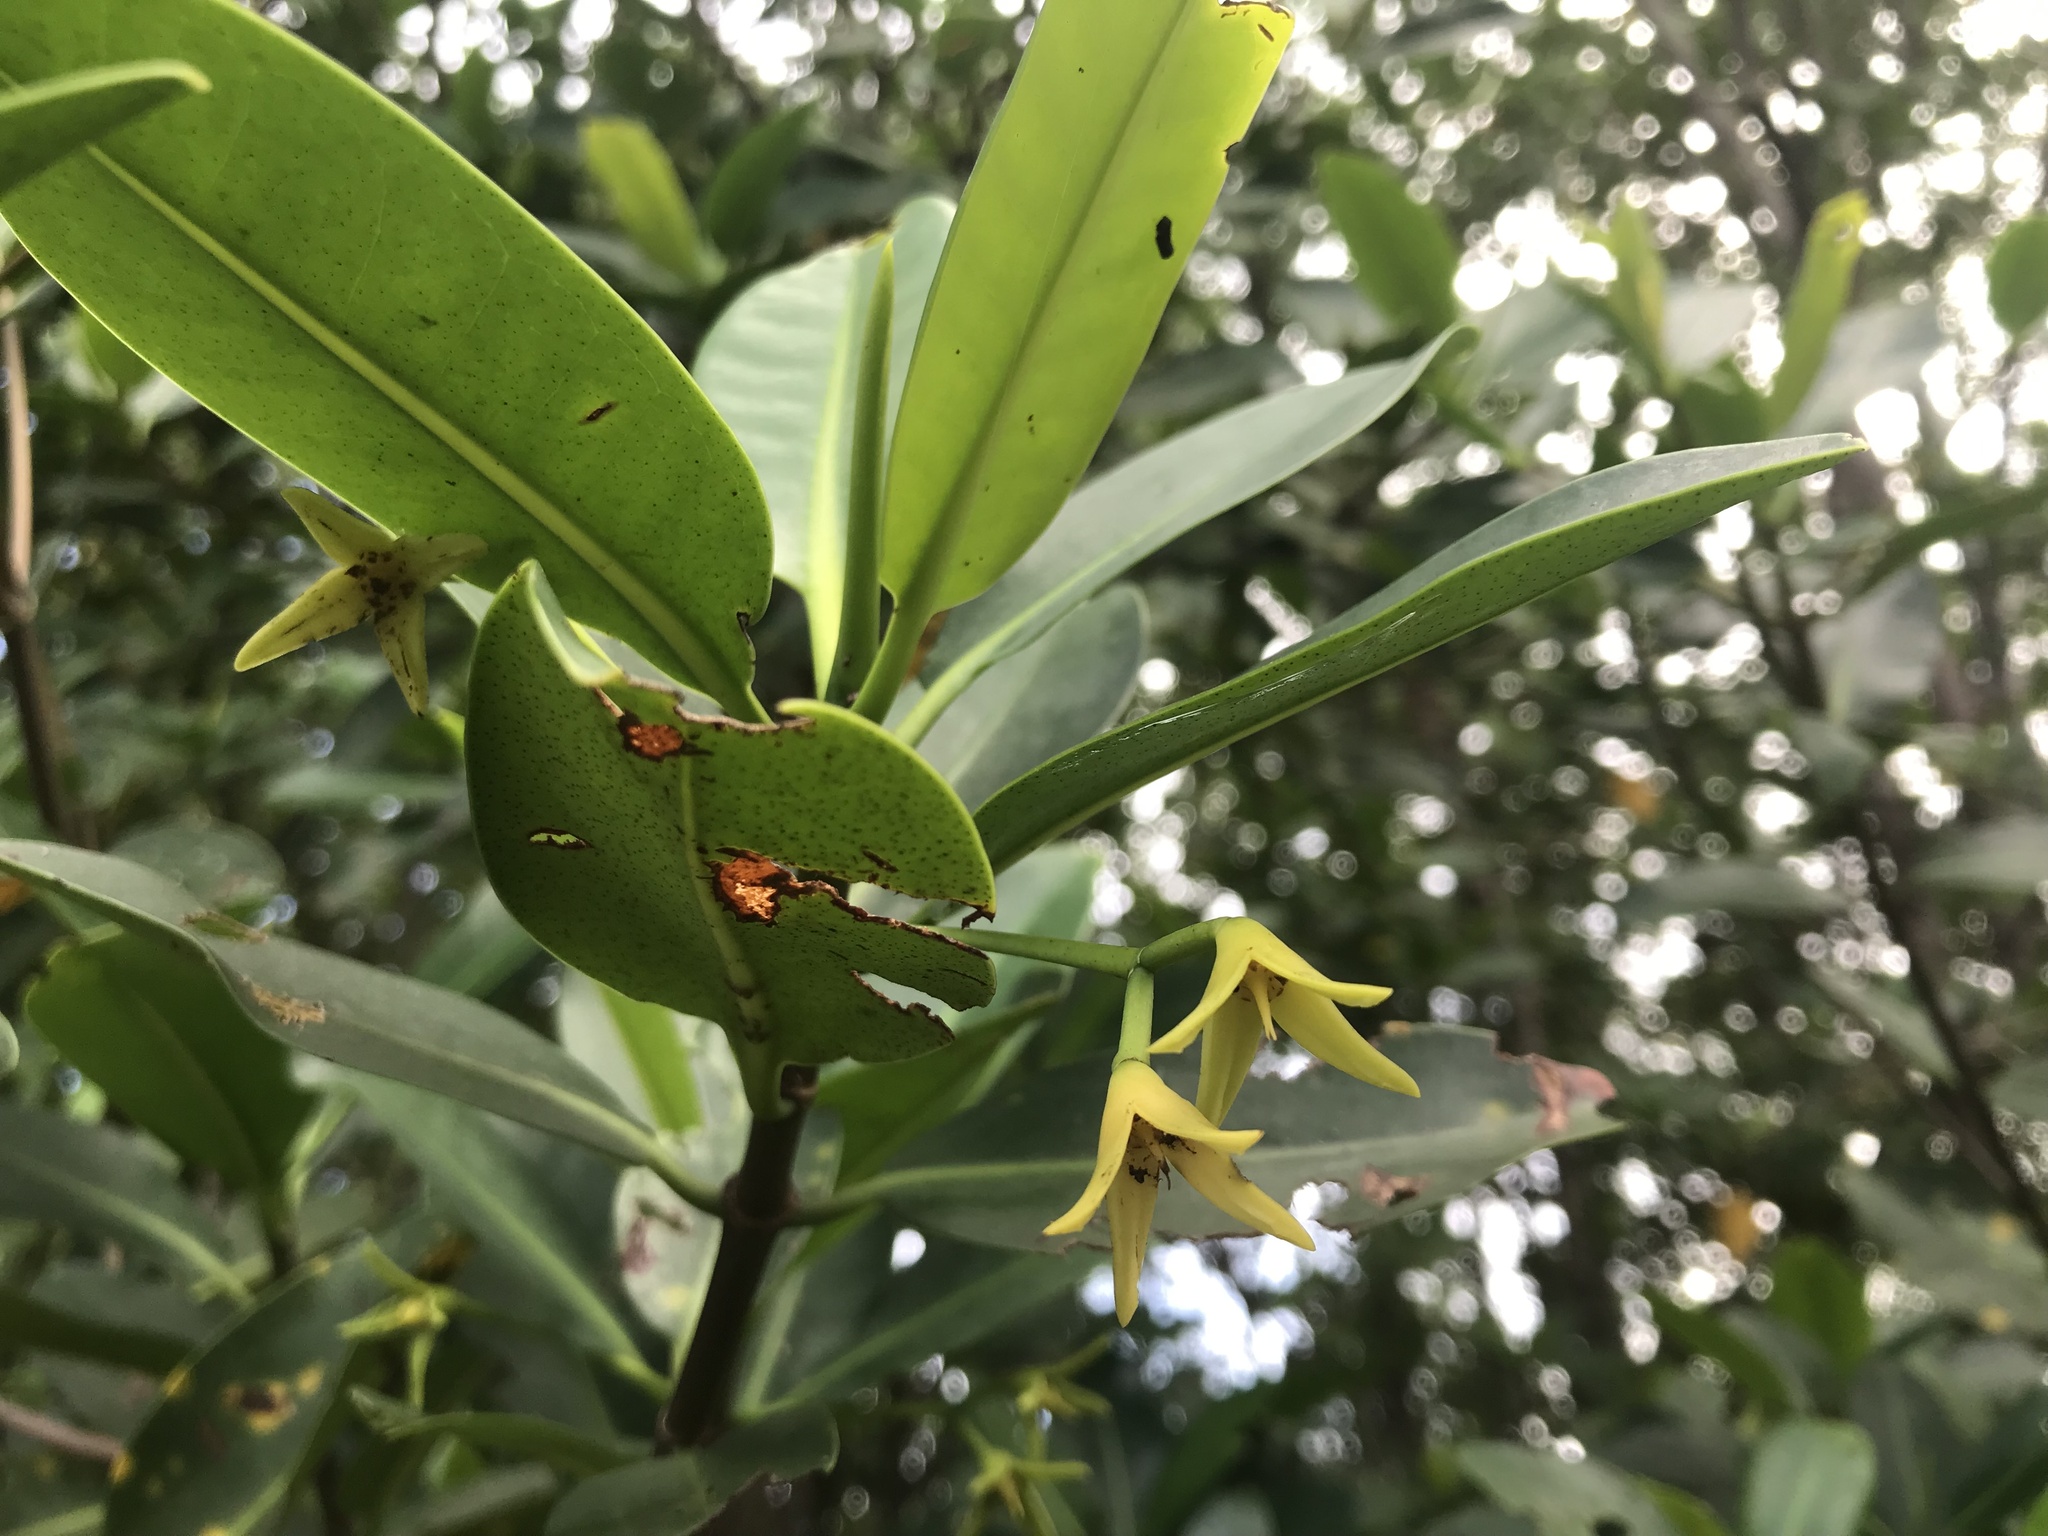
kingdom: Plantae
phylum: Tracheophyta
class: Magnoliopsida
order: Malpighiales
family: Rhizophoraceae
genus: Rhizophora
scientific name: Rhizophora mangle
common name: Red mangrove
